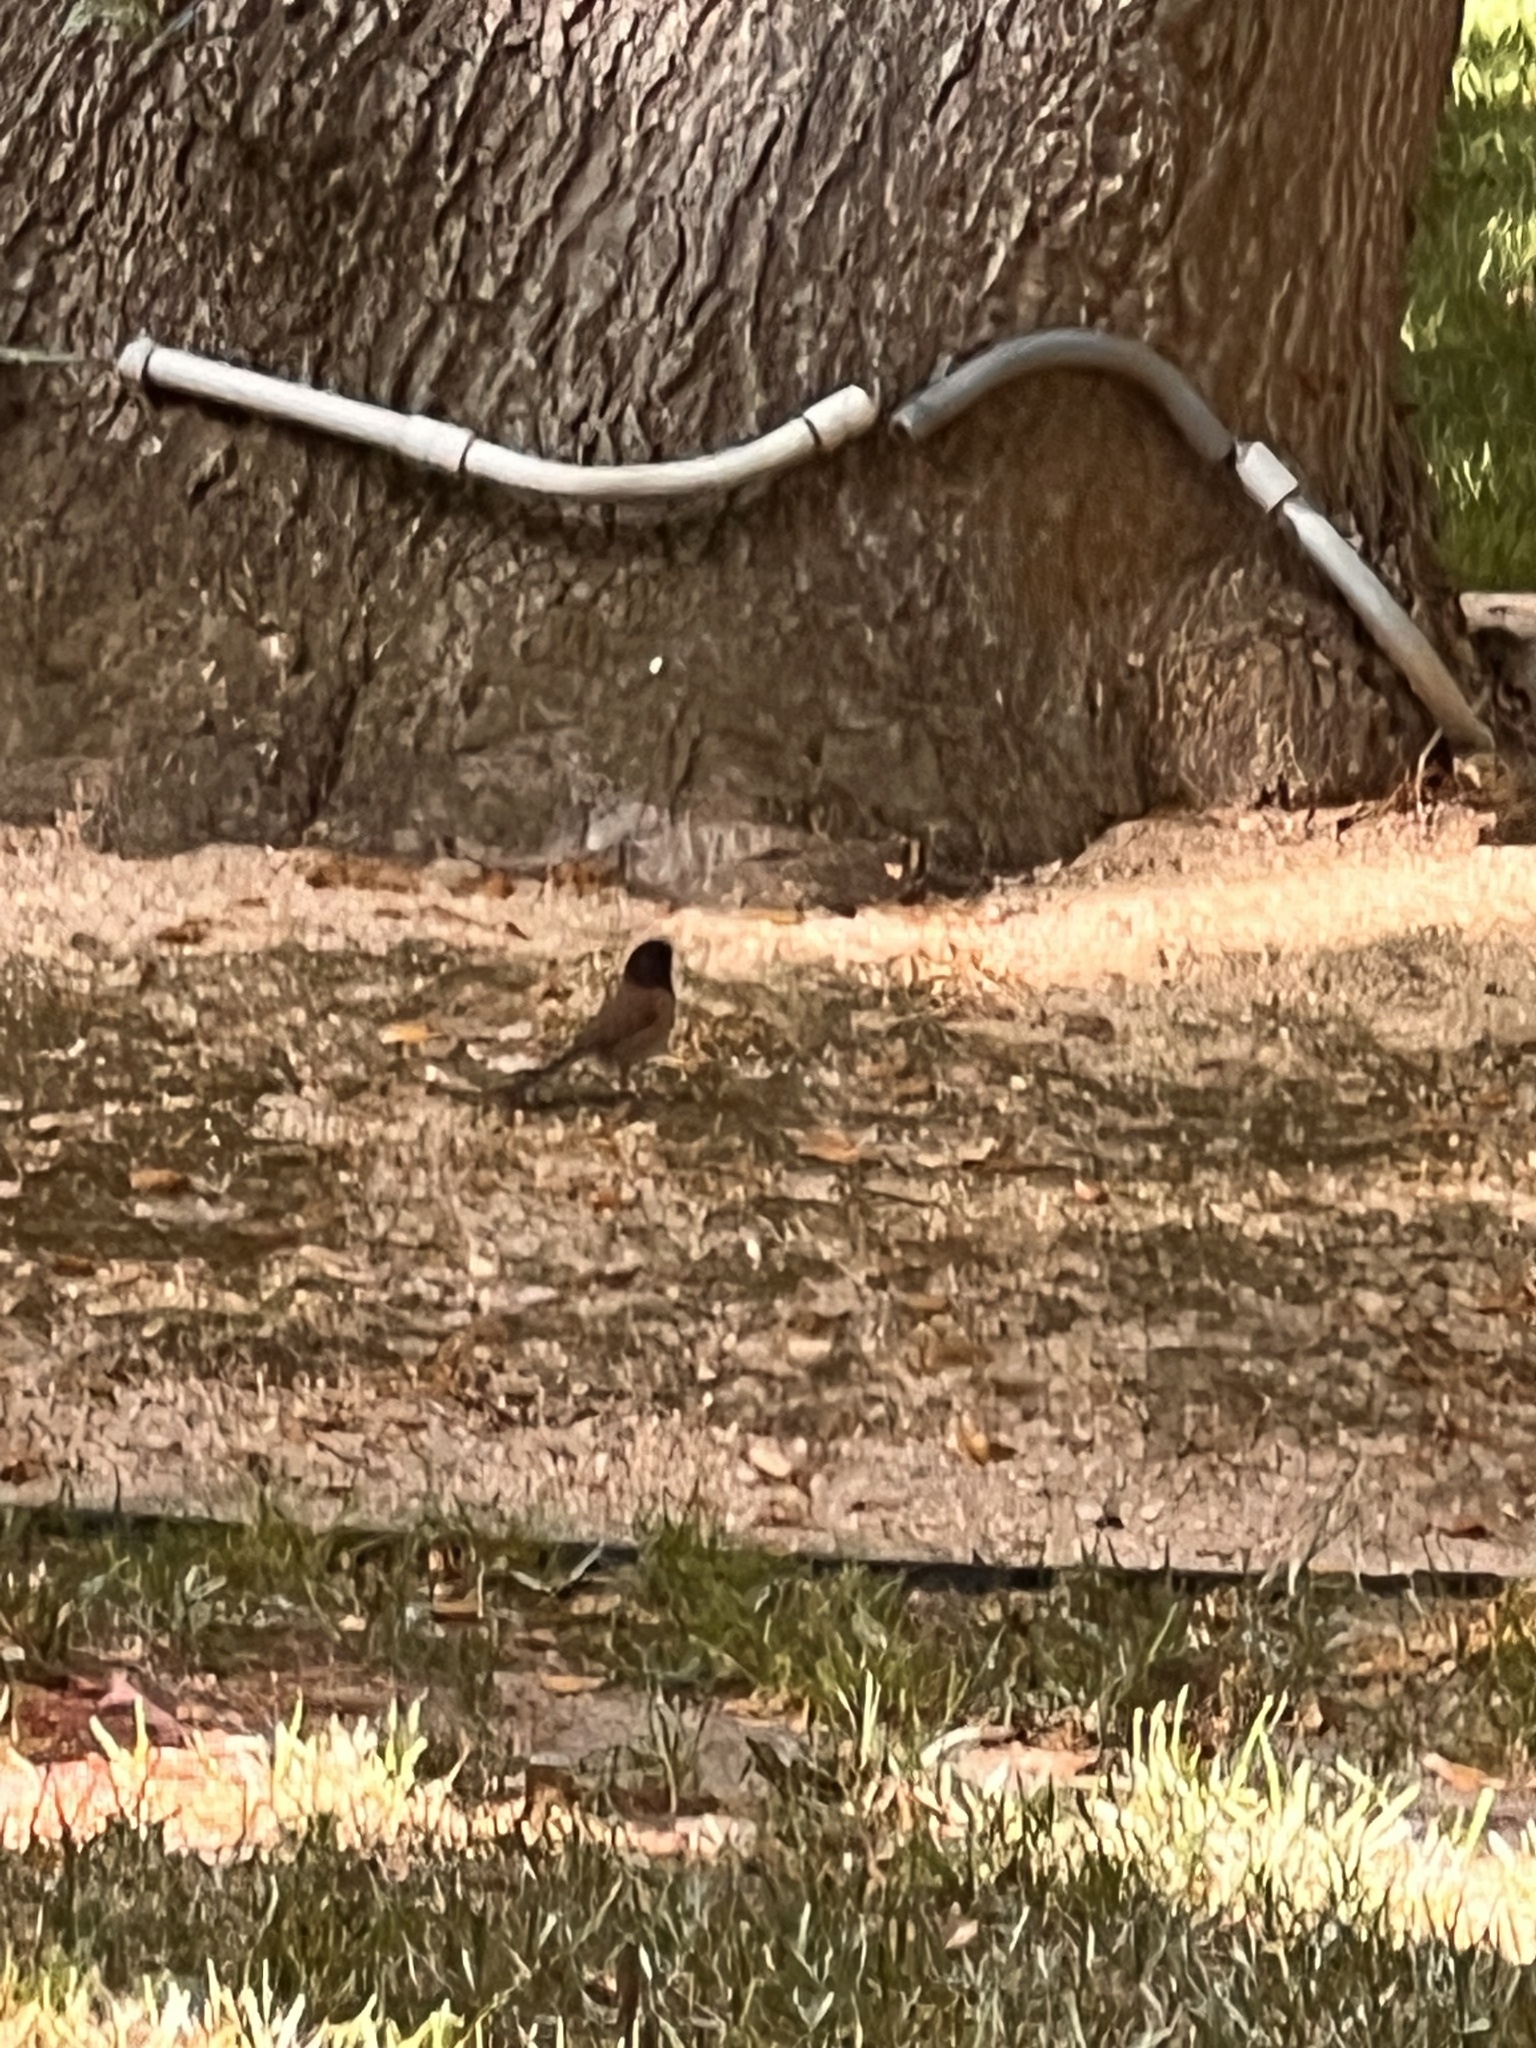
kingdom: Animalia
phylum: Chordata
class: Aves
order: Passeriformes
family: Passerellidae
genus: Junco
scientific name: Junco hyemalis
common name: Dark-eyed junco
